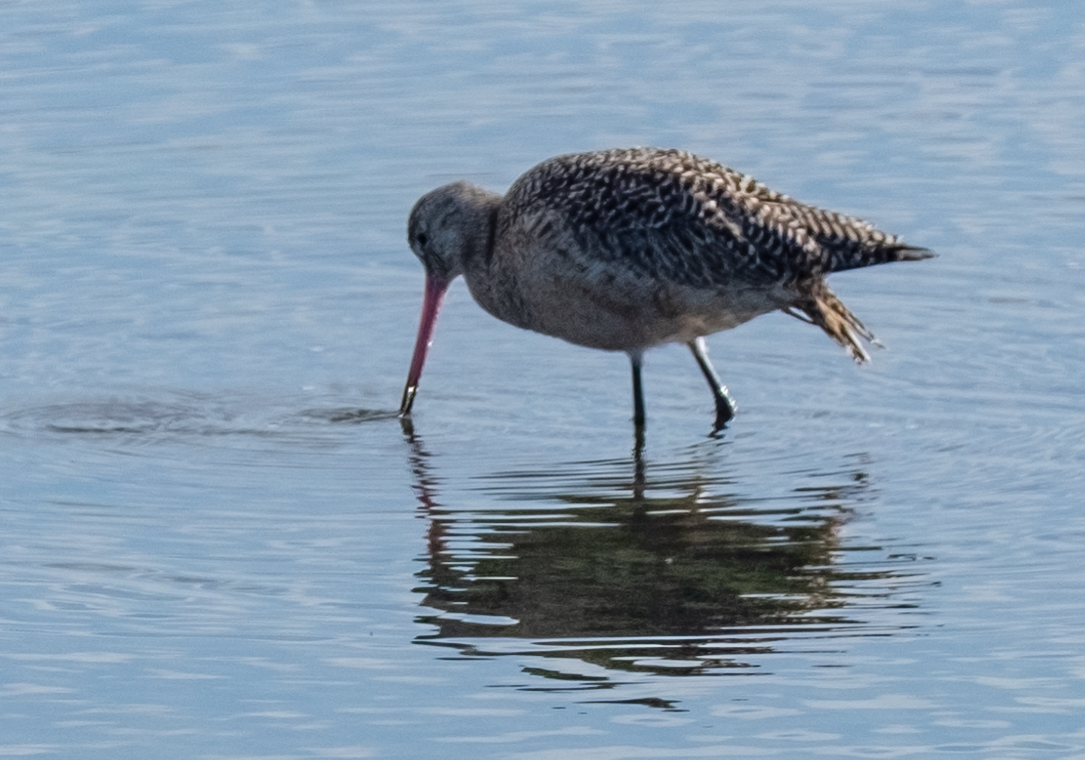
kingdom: Animalia
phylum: Chordata
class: Aves
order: Charadriiformes
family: Scolopacidae
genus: Limosa
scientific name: Limosa fedoa
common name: Marbled godwit
